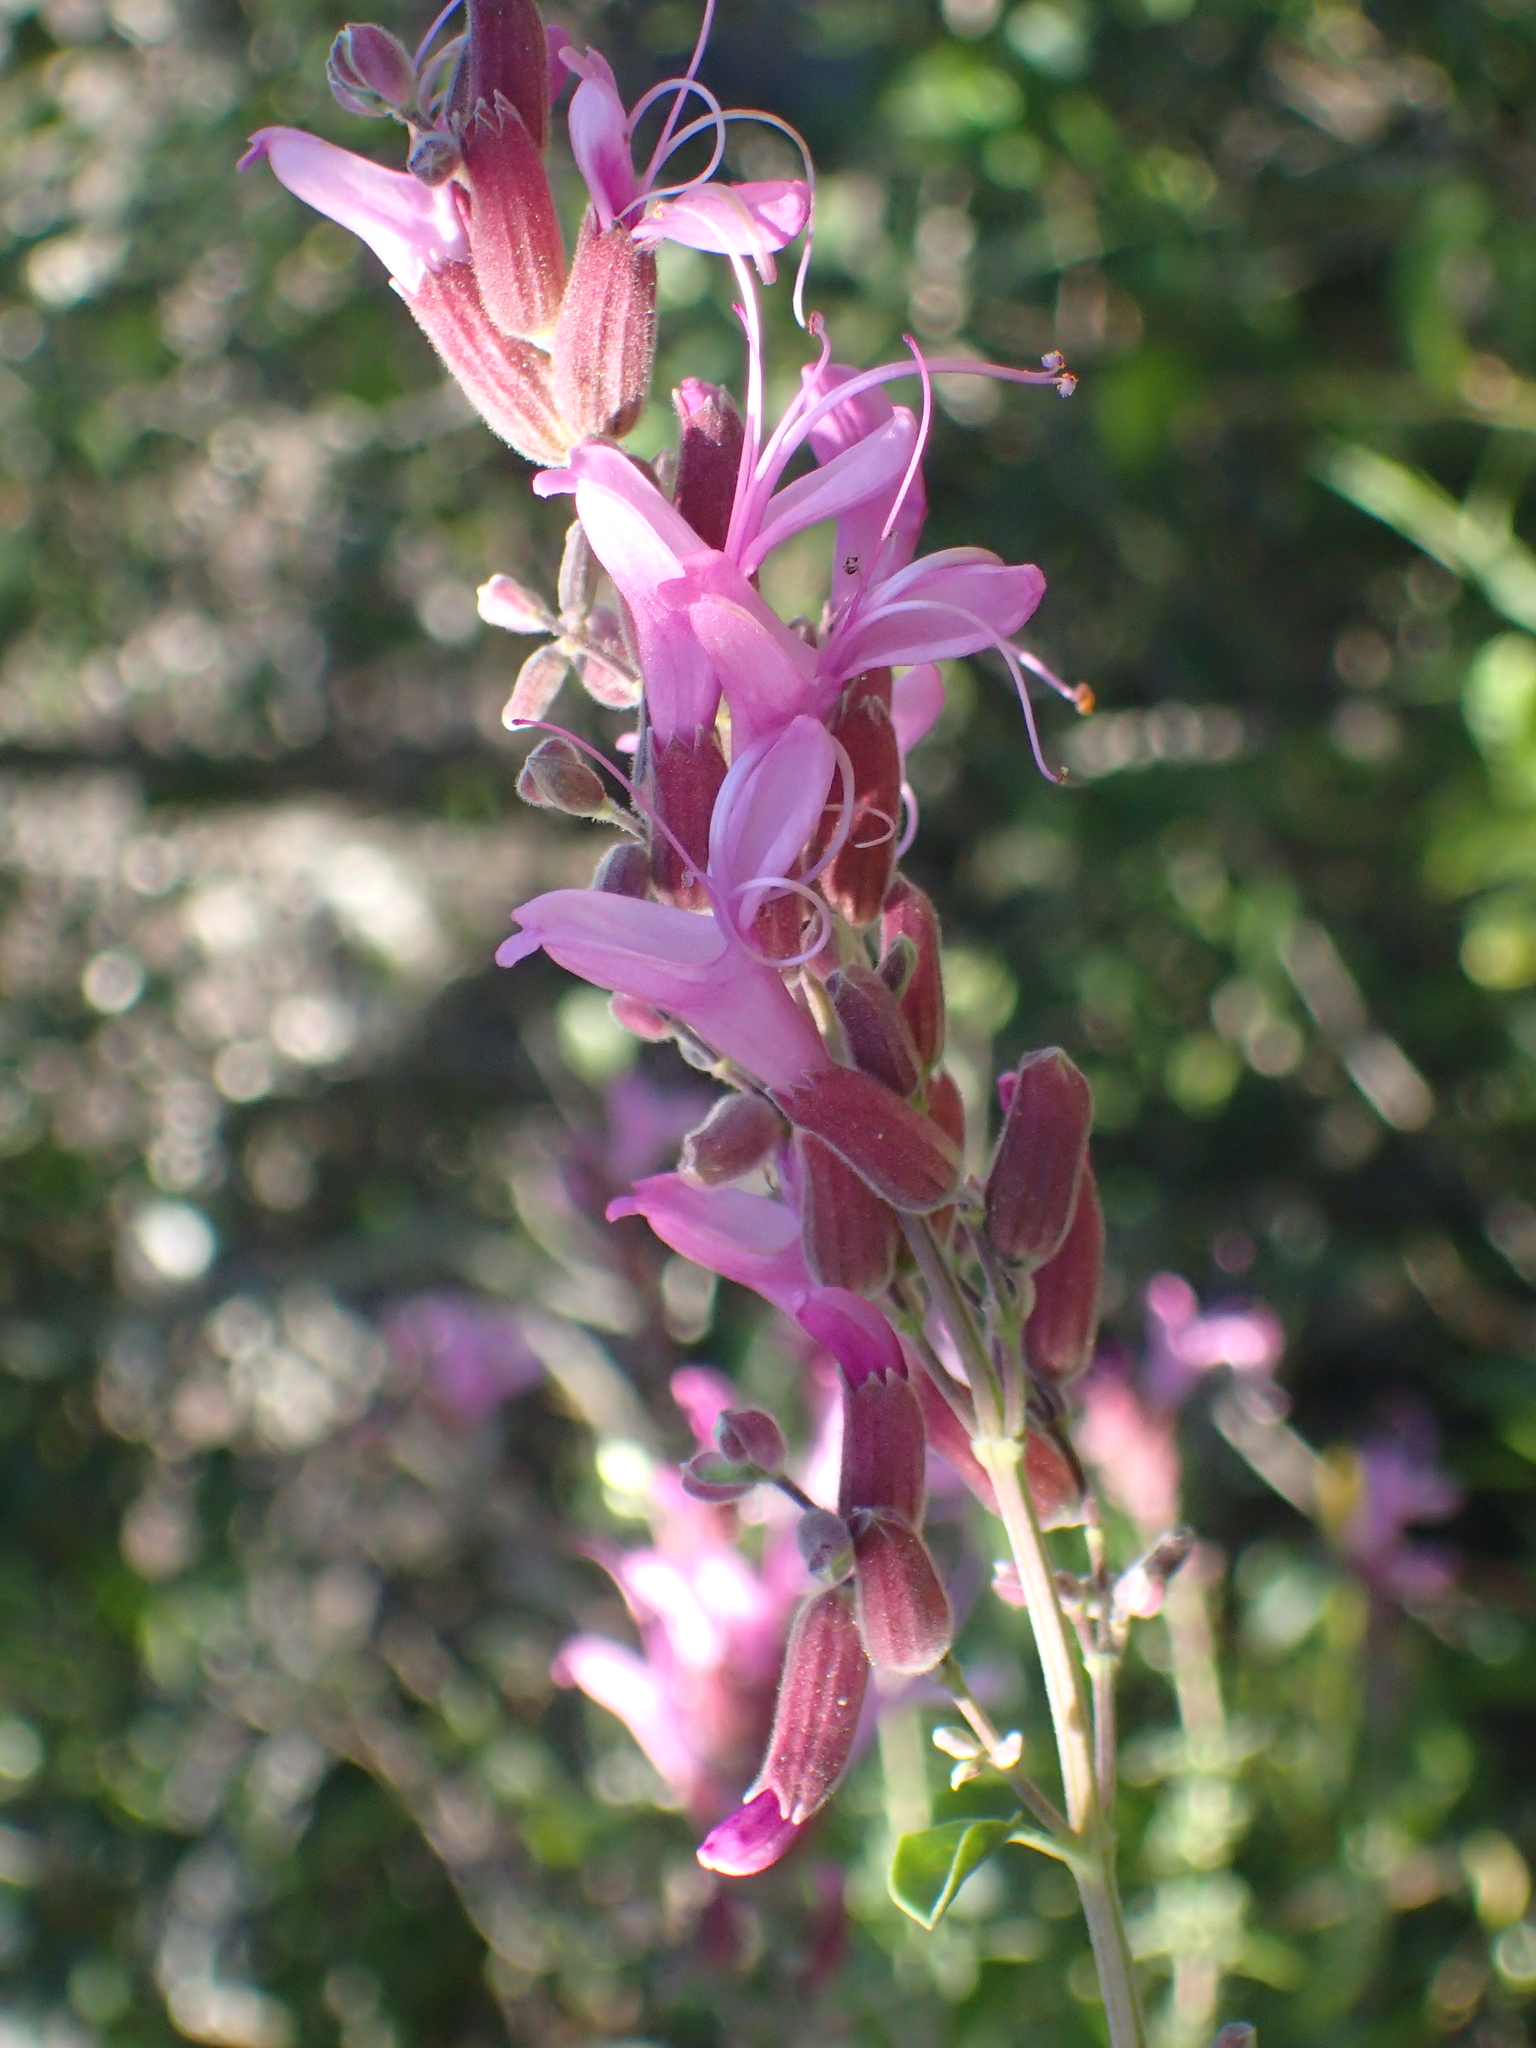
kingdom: Plantae
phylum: Tracheophyta
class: Magnoliopsida
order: Lamiales
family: Lamiaceae
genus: Syncolostemon
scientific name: Syncolostemon rotundifolius
